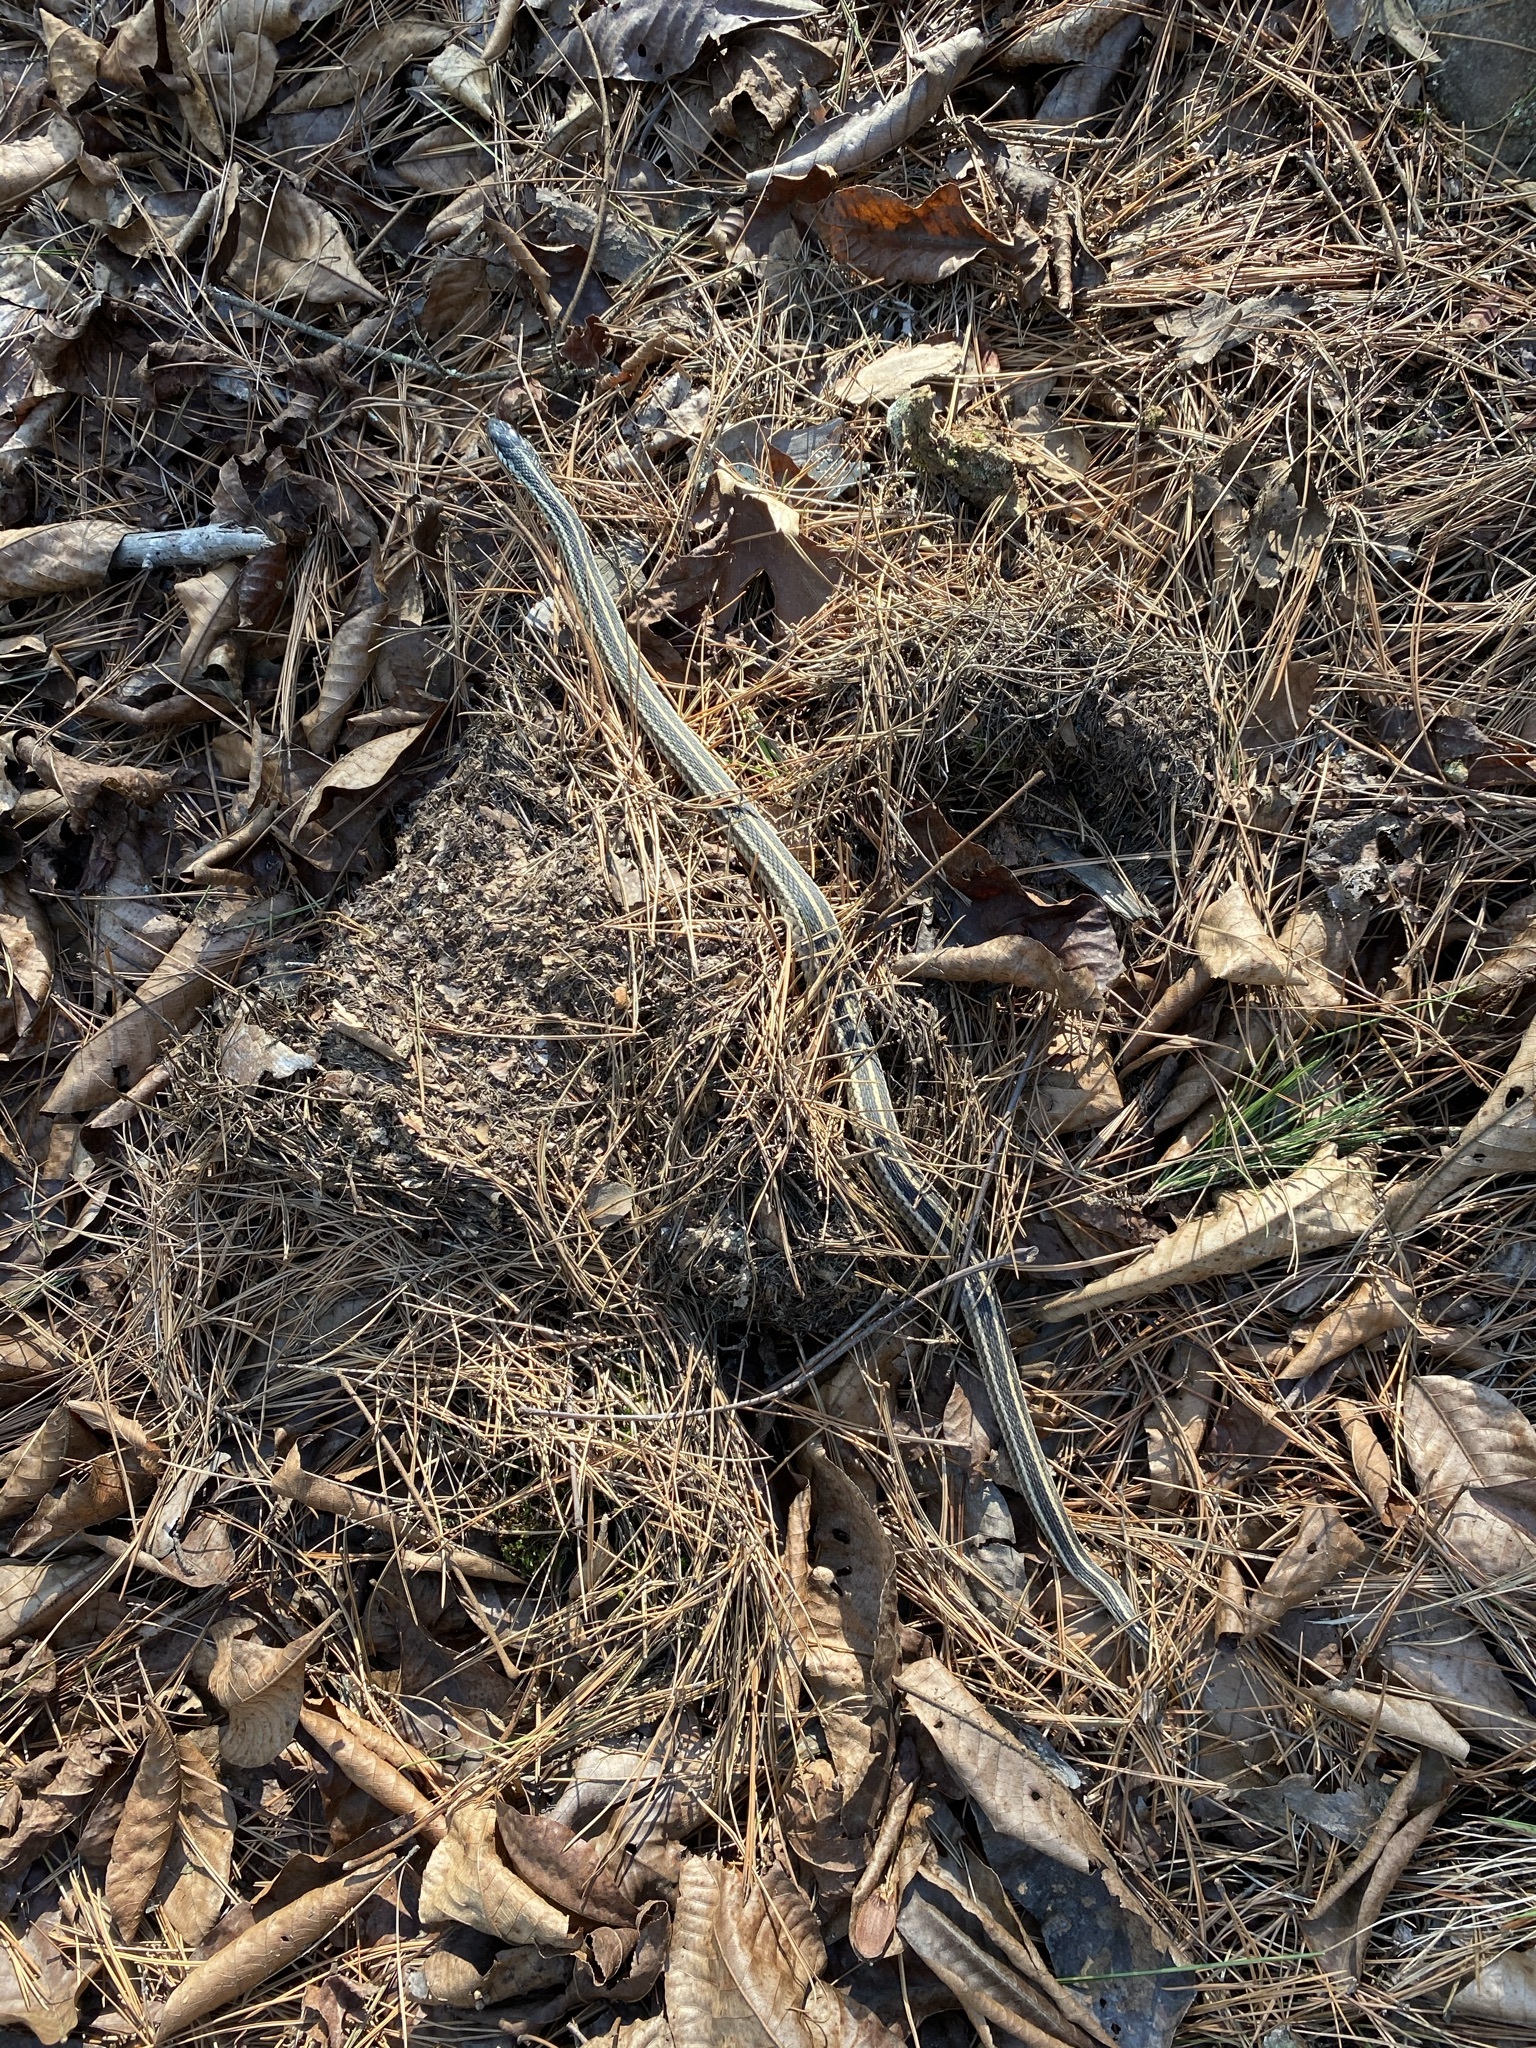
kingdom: Animalia
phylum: Chordata
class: Squamata
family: Colubridae
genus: Thamnophis
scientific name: Thamnophis sirtalis
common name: Common garter snake
